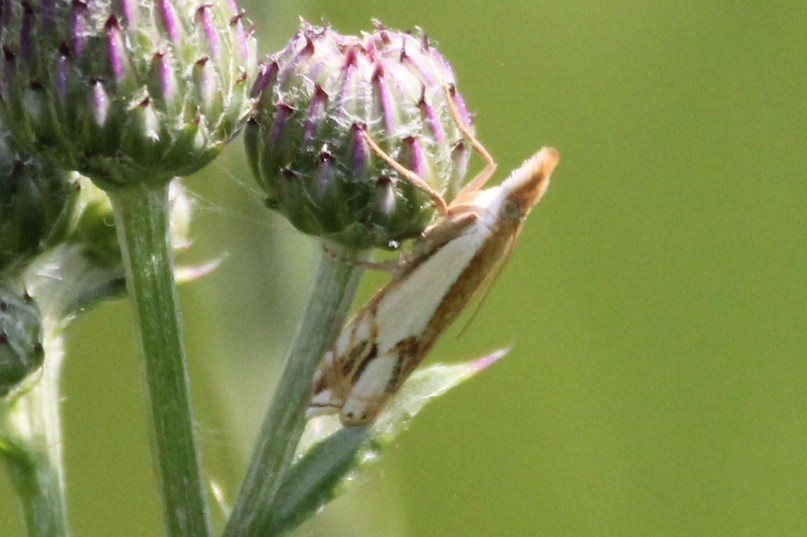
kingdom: Animalia
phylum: Arthropoda
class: Insecta
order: Lepidoptera
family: Crambidae
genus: Crambus
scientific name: Crambus agitatellus
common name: Double-banded grass-veneer
